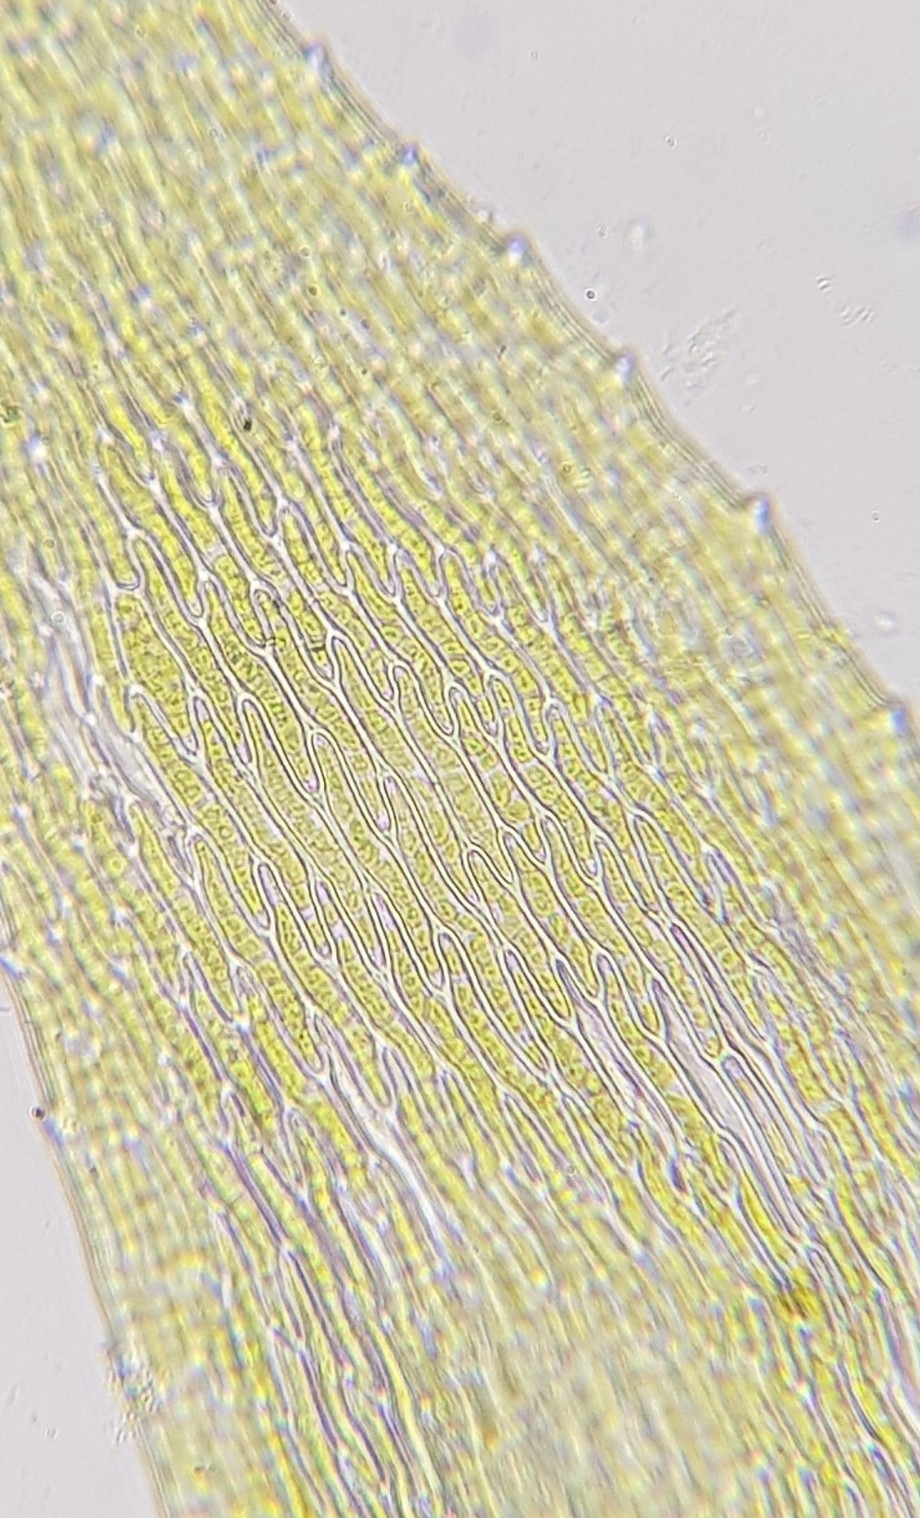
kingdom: Plantae
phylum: Bryophyta
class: Bryopsida
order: Hypnales
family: Hypnaceae
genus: Hypnum
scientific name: Hypnum resupinatum
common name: Supine plait-moss
